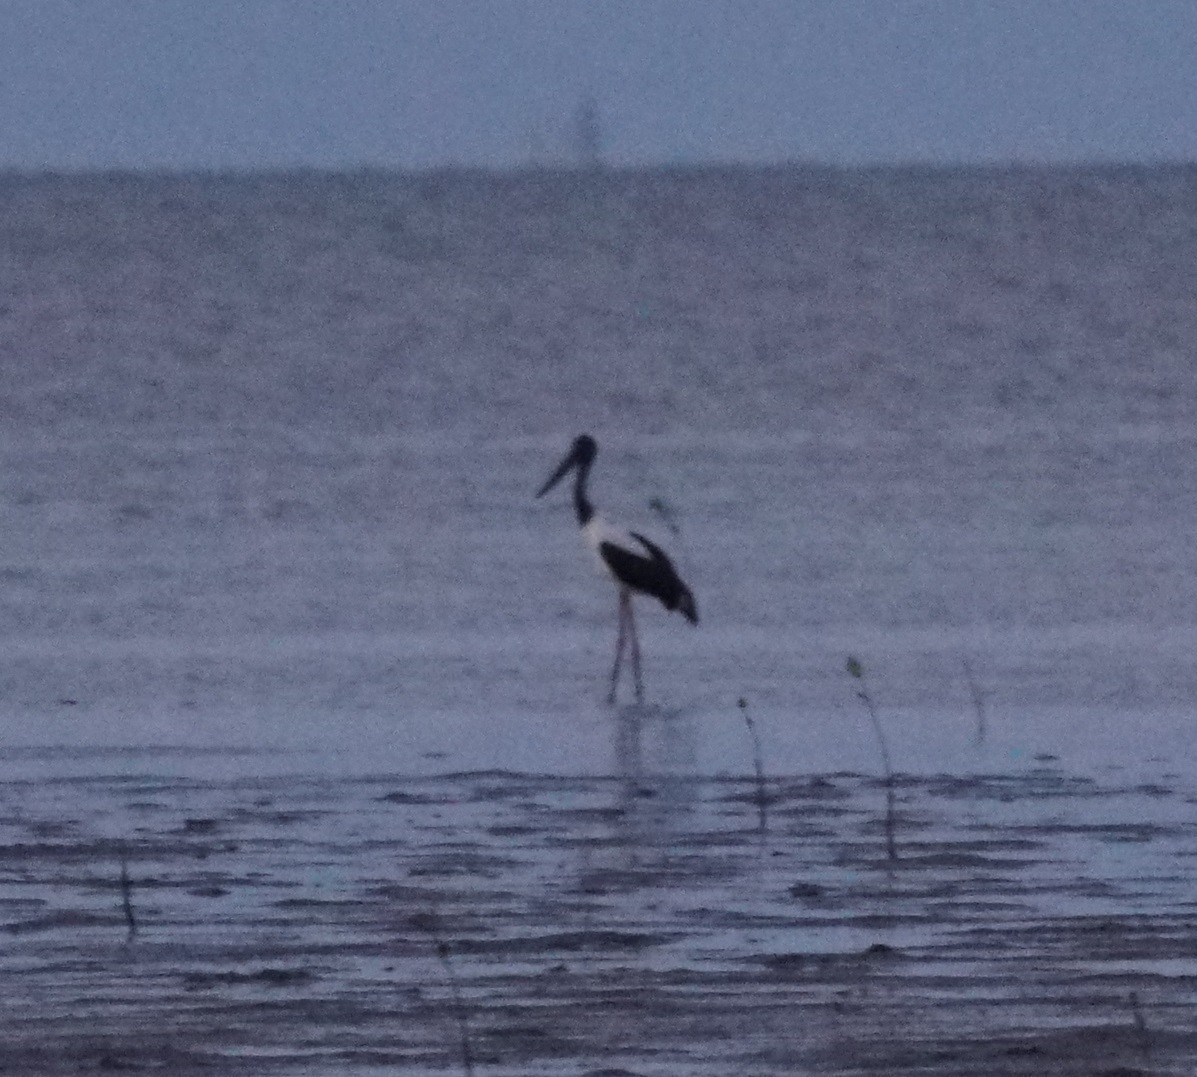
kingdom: Animalia
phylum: Chordata
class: Aves
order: Ciconiiformes
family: Ciconiidae
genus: Ephippiorhynchus
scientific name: Ephippiorhynchus asiaticus
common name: Black-necked stork
